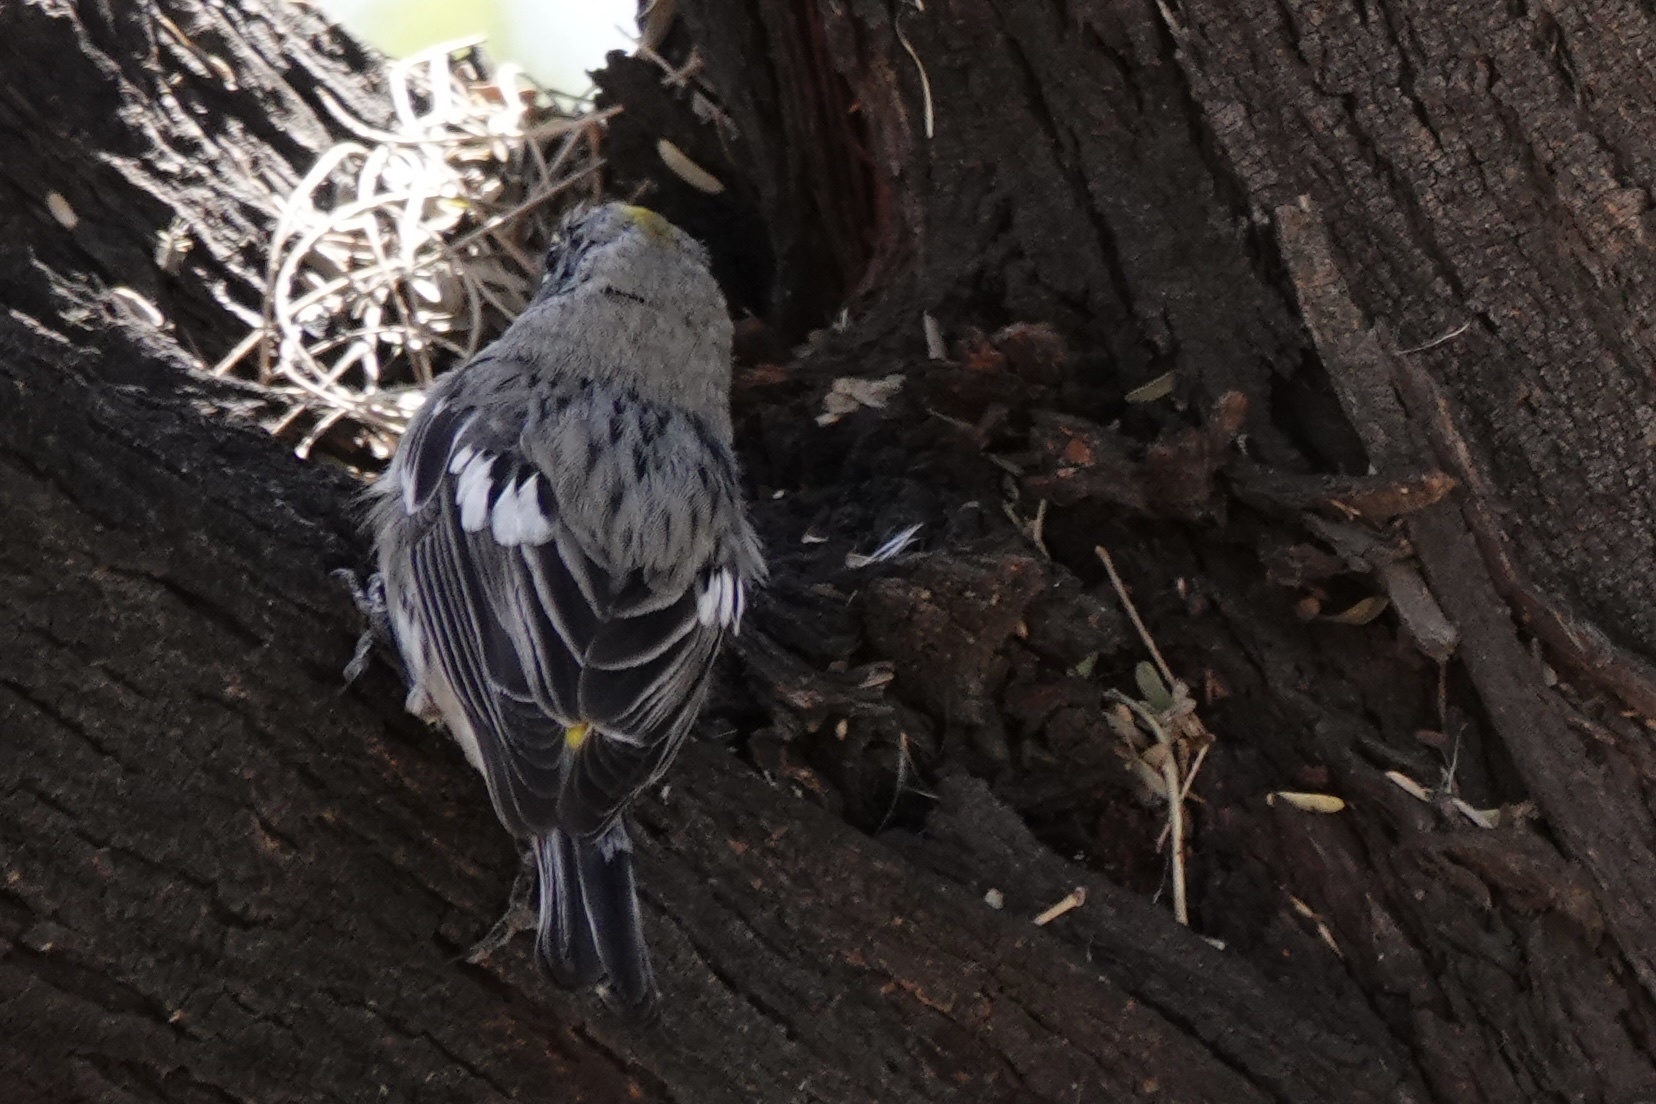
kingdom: Animalia
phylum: Chordata
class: Aves
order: Passeriformes
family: Parulidae
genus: Setophaga
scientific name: Setophaga coronata
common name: Myrtle warbler
